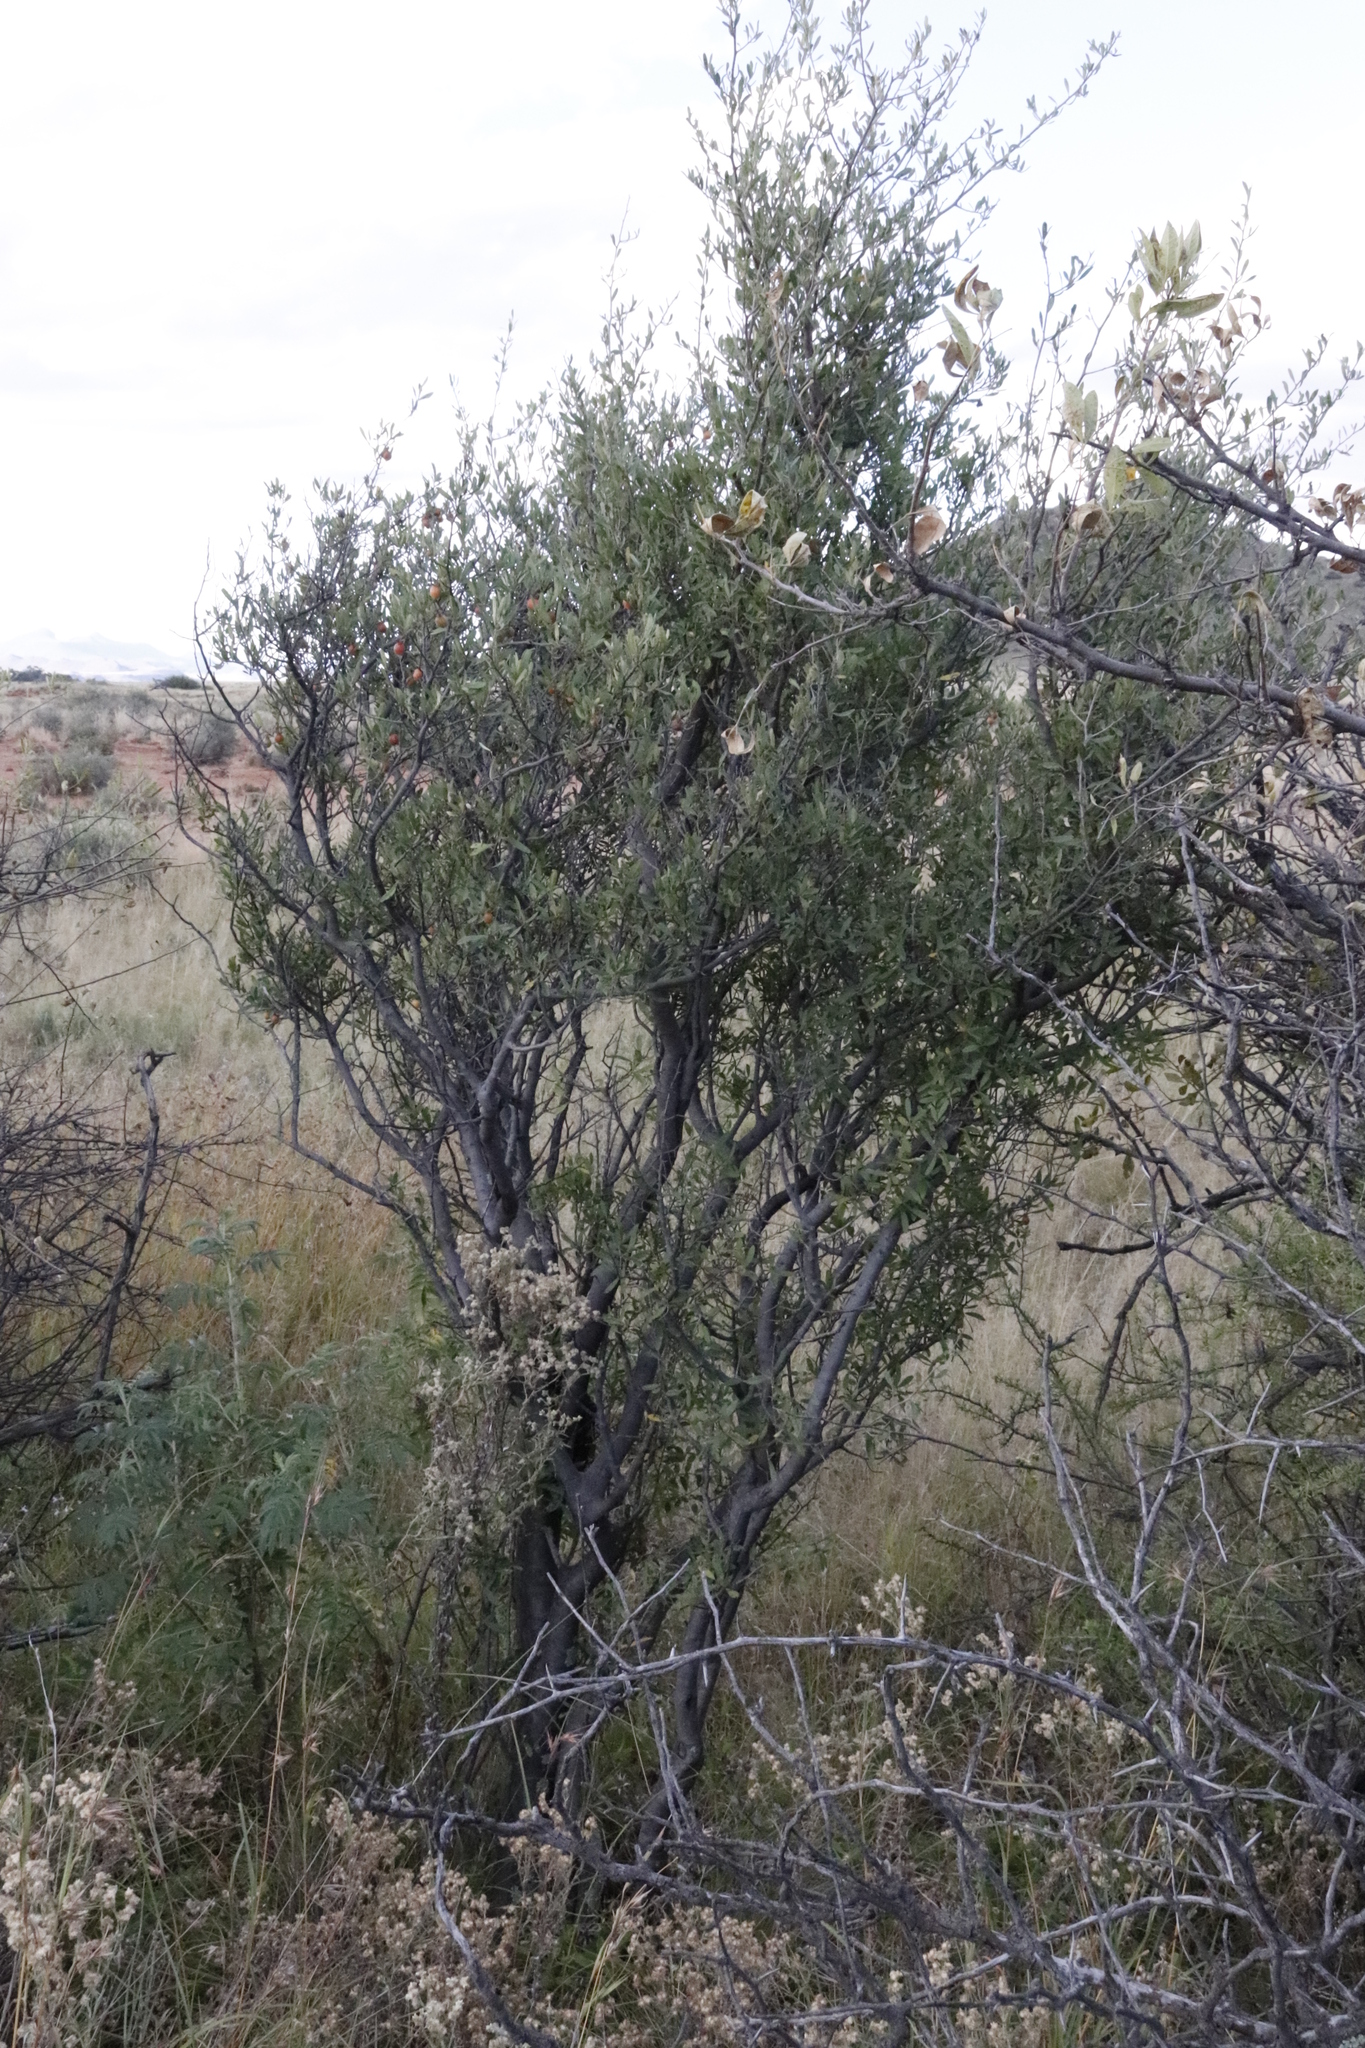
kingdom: Plantae
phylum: Tracheophyta
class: Magnoliopsida
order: Ericales
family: Ebenaceae
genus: Diospyros
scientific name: Diospyros lycioides
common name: Red star apple
